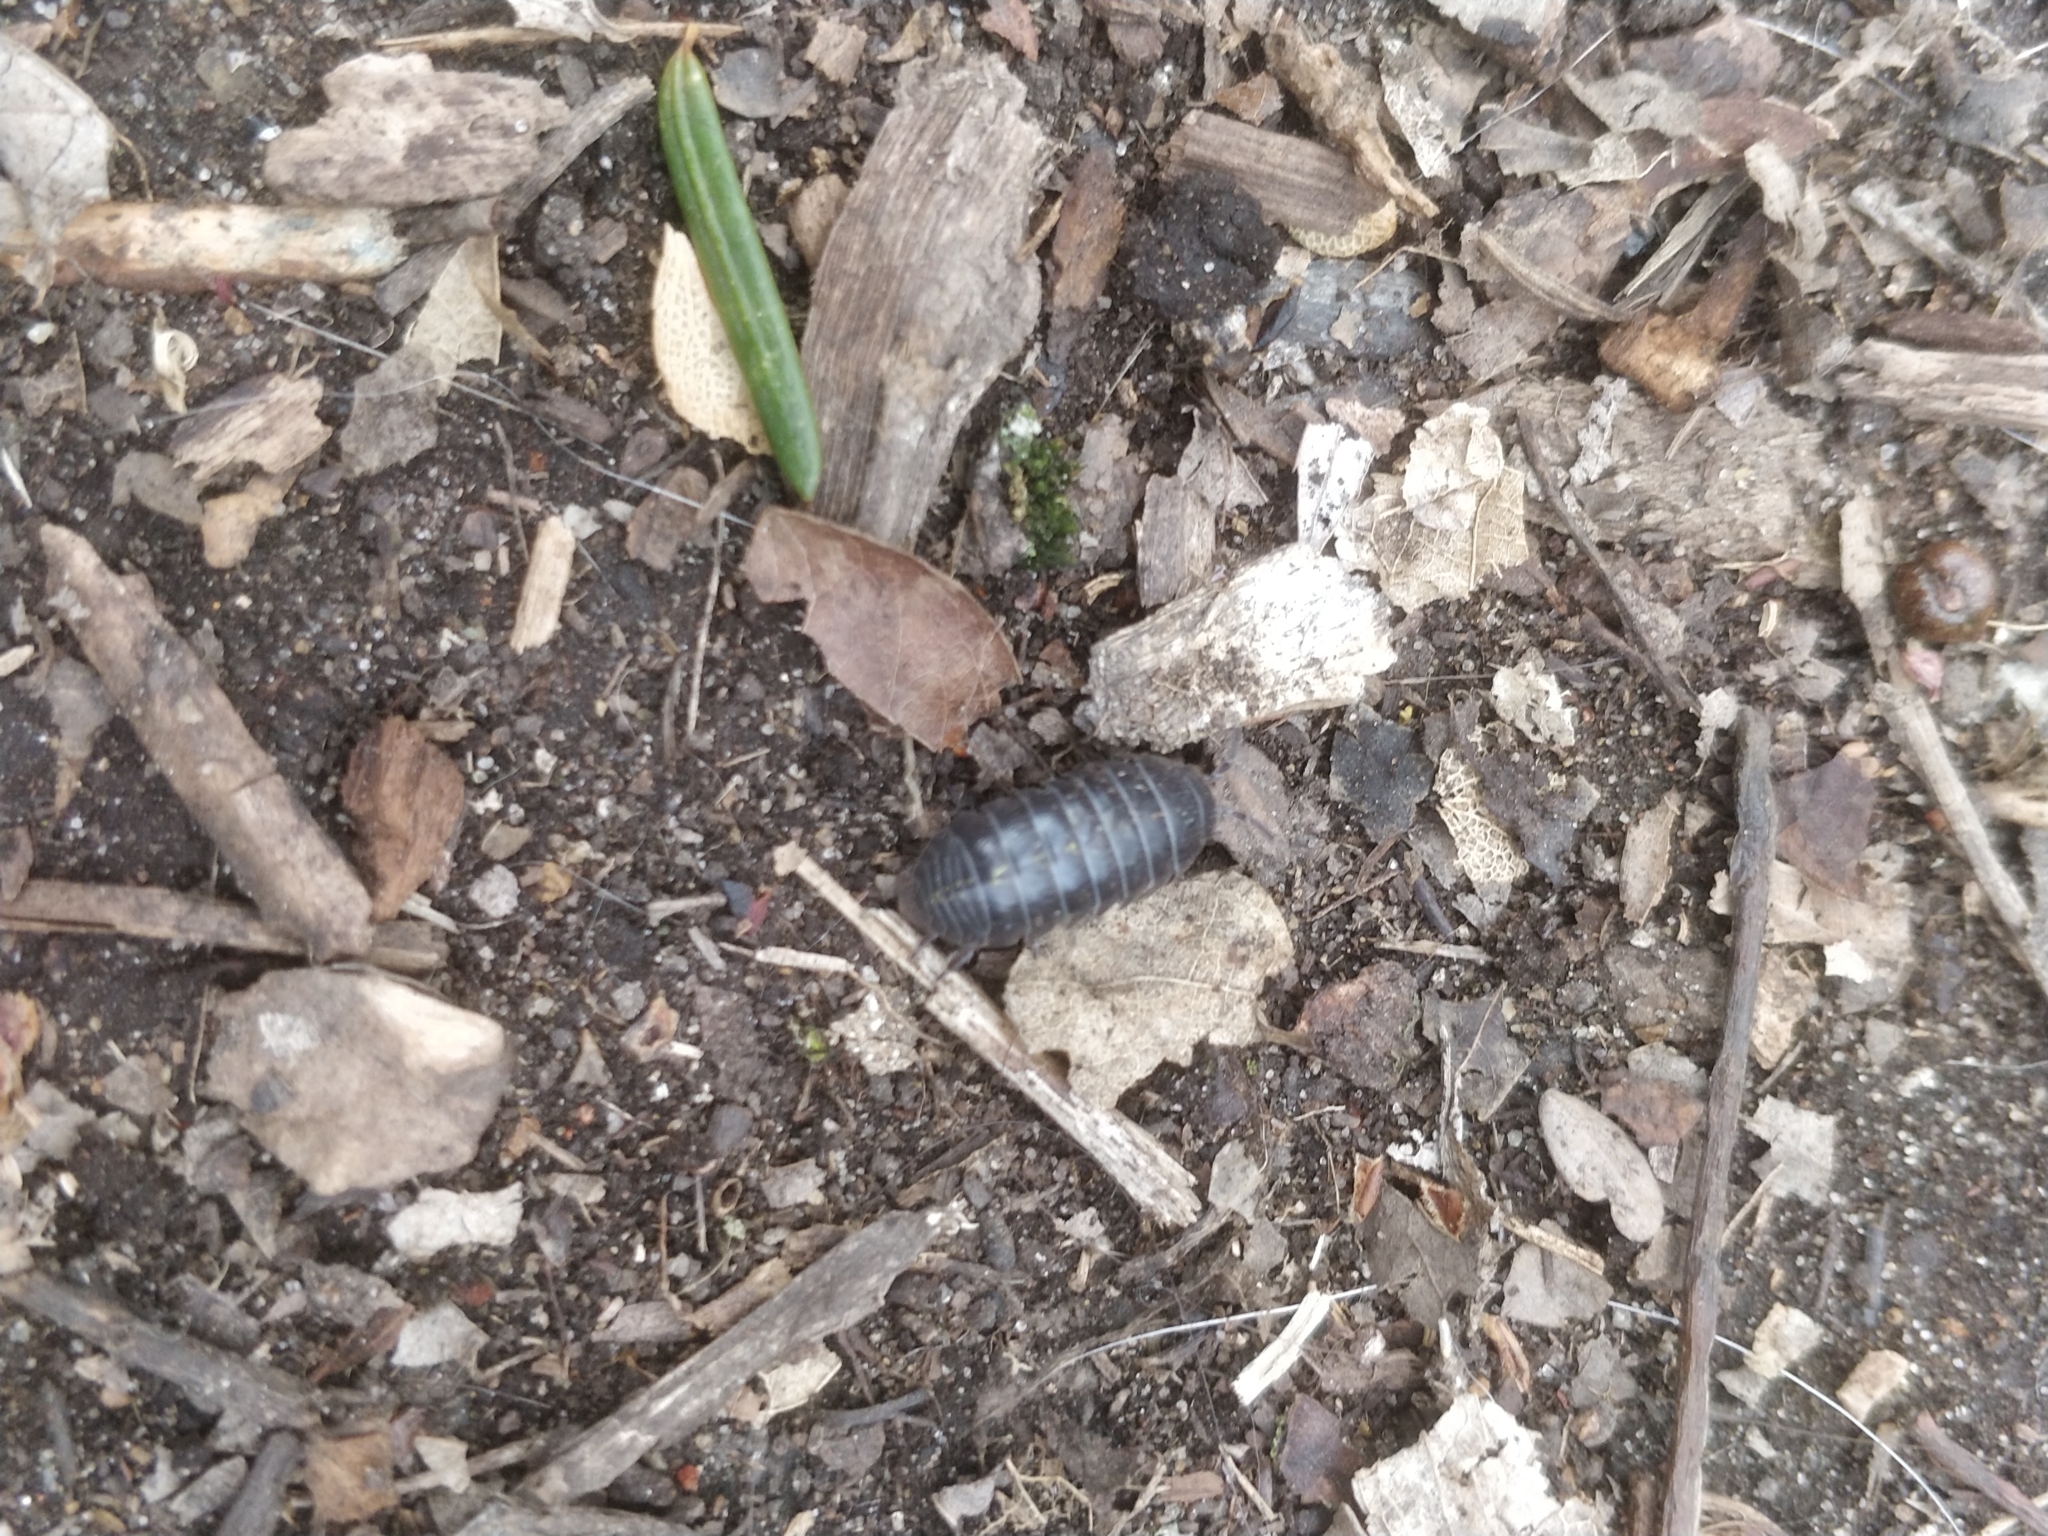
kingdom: Animalia
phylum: Arthropoda
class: Malacostraca
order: Isopoda
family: Armadillidiidae
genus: Armadillidium
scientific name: Armadillidium vulgare
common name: Common pill woodlouse
